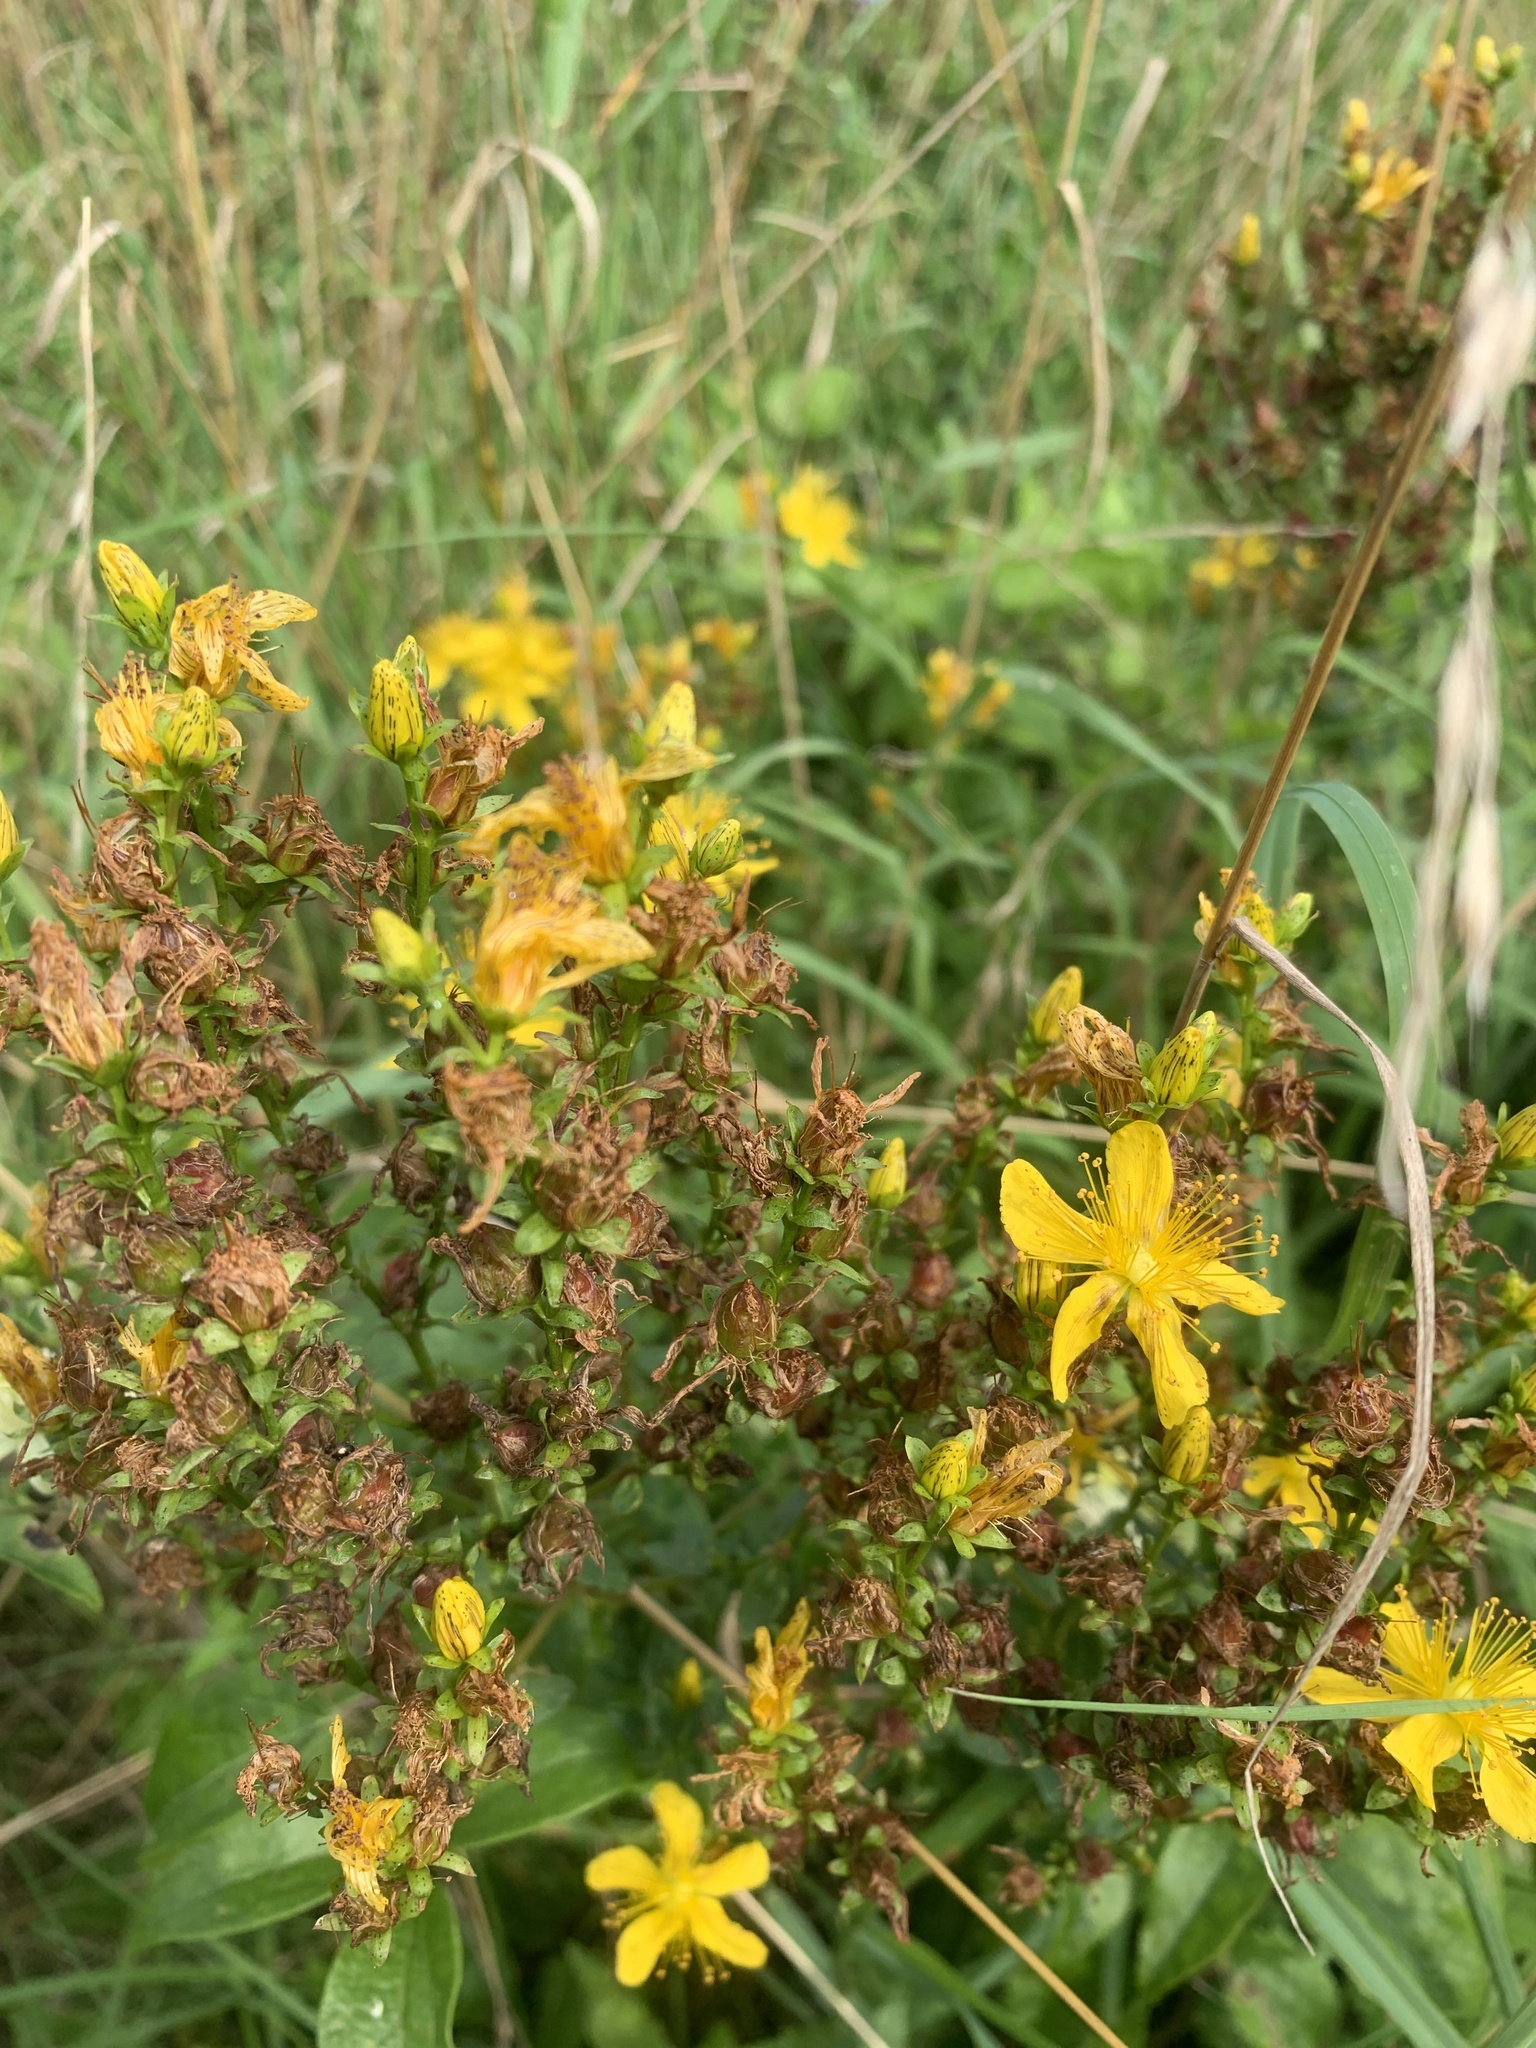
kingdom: Plantae
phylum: Tracheophyta
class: Magnoliopsida
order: Malpighiales
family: Hypericaceae
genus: Hypericum
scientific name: Hypericum perforatum
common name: Common st. johnswort
